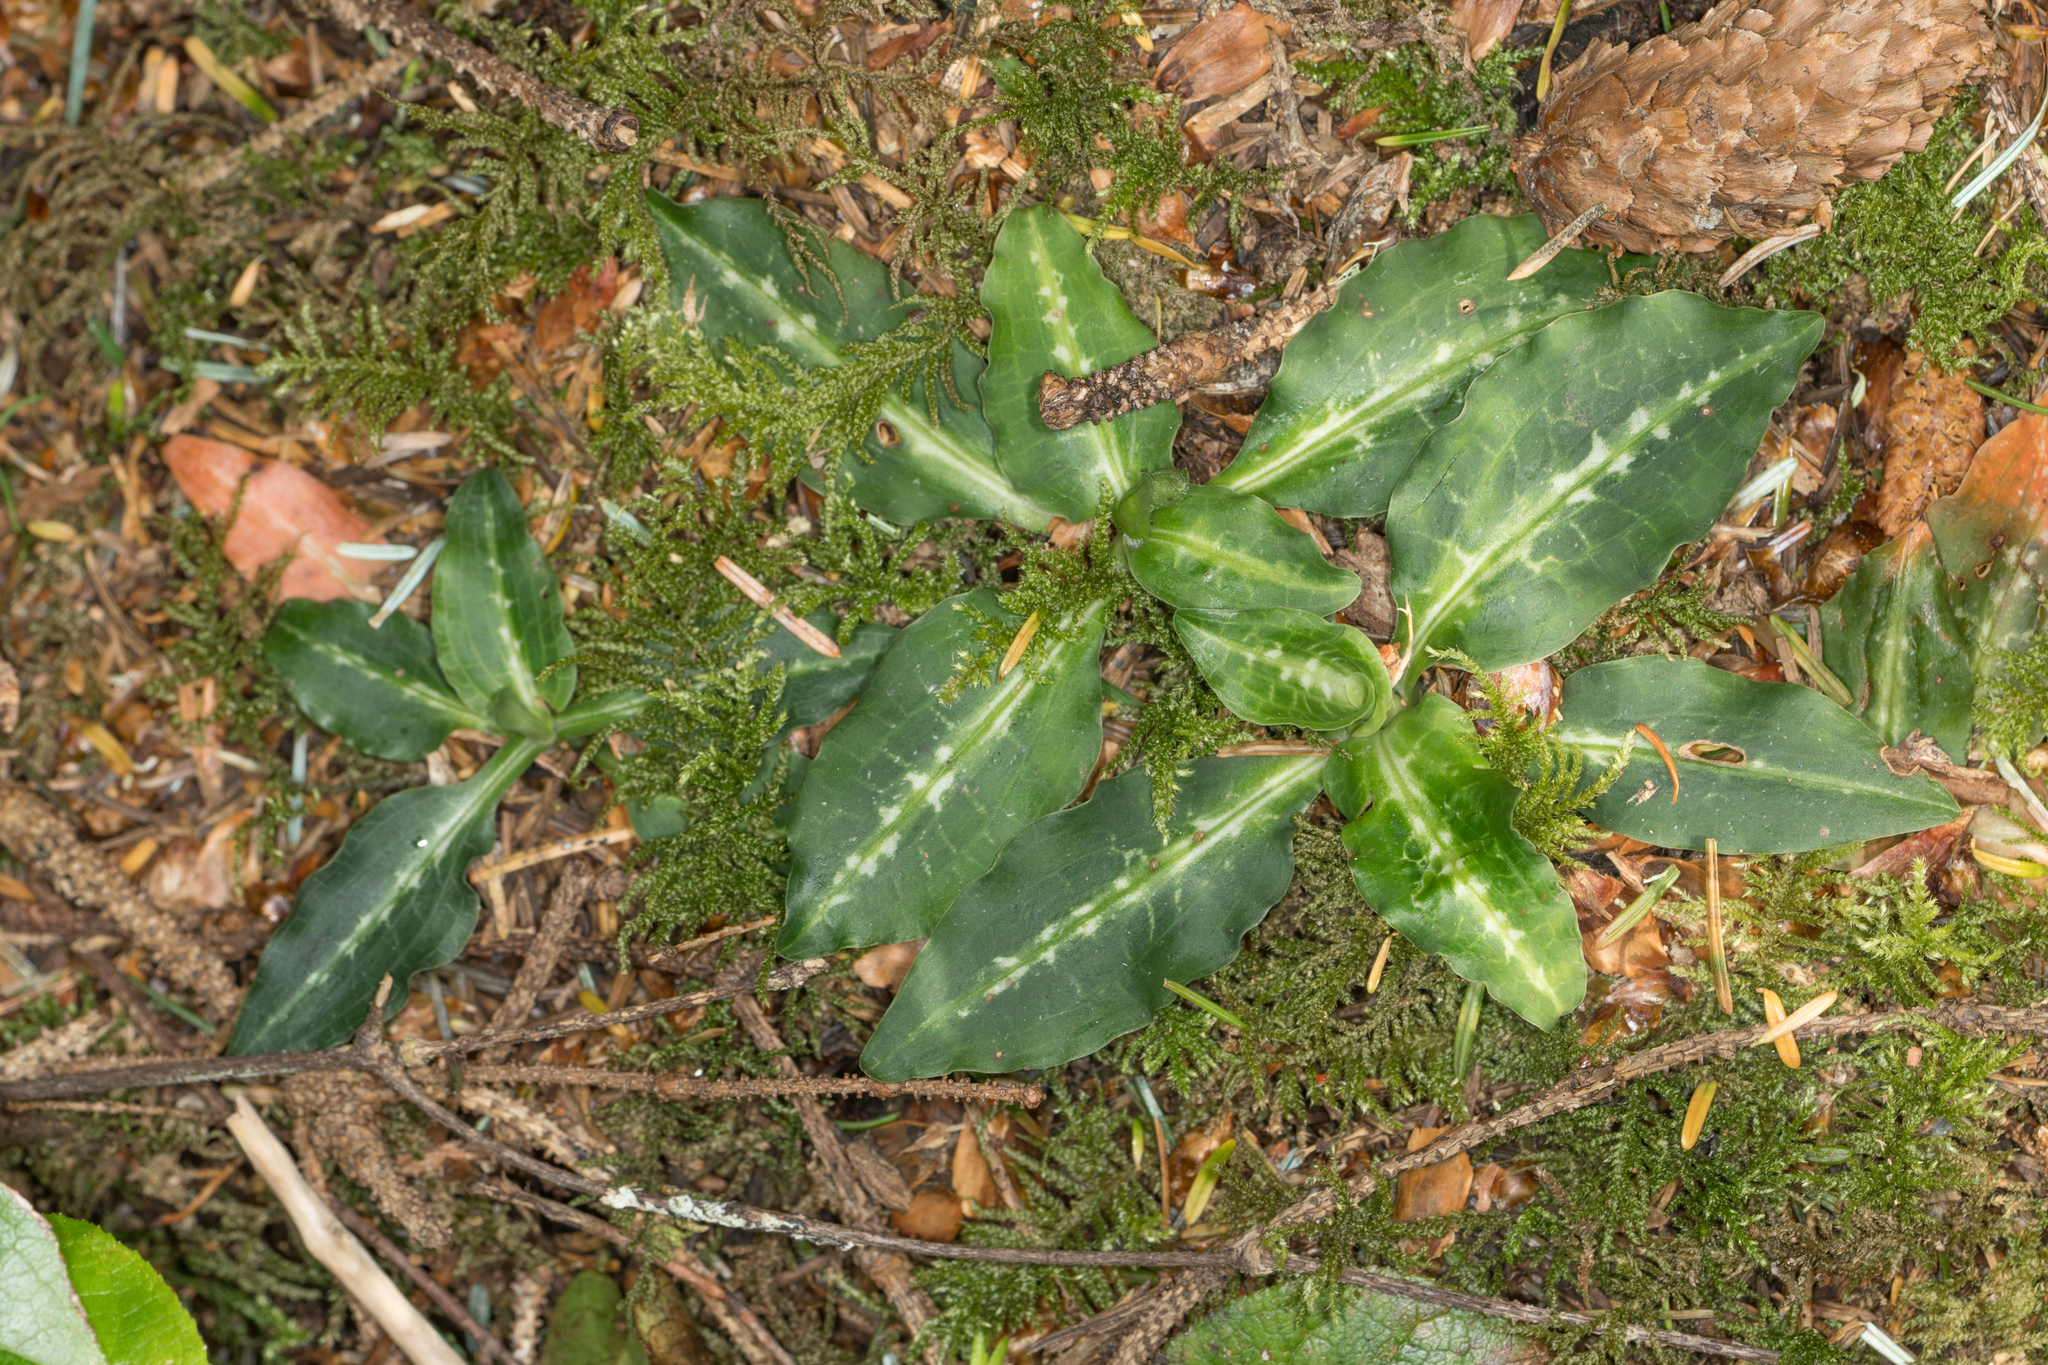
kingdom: Plantae
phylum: Tracheophyta
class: Liliopsida
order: Asparagales
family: Orchidaceae
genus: Goodyera
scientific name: Goodyera oblongifolia
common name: Giant rattlesnake-plantain
